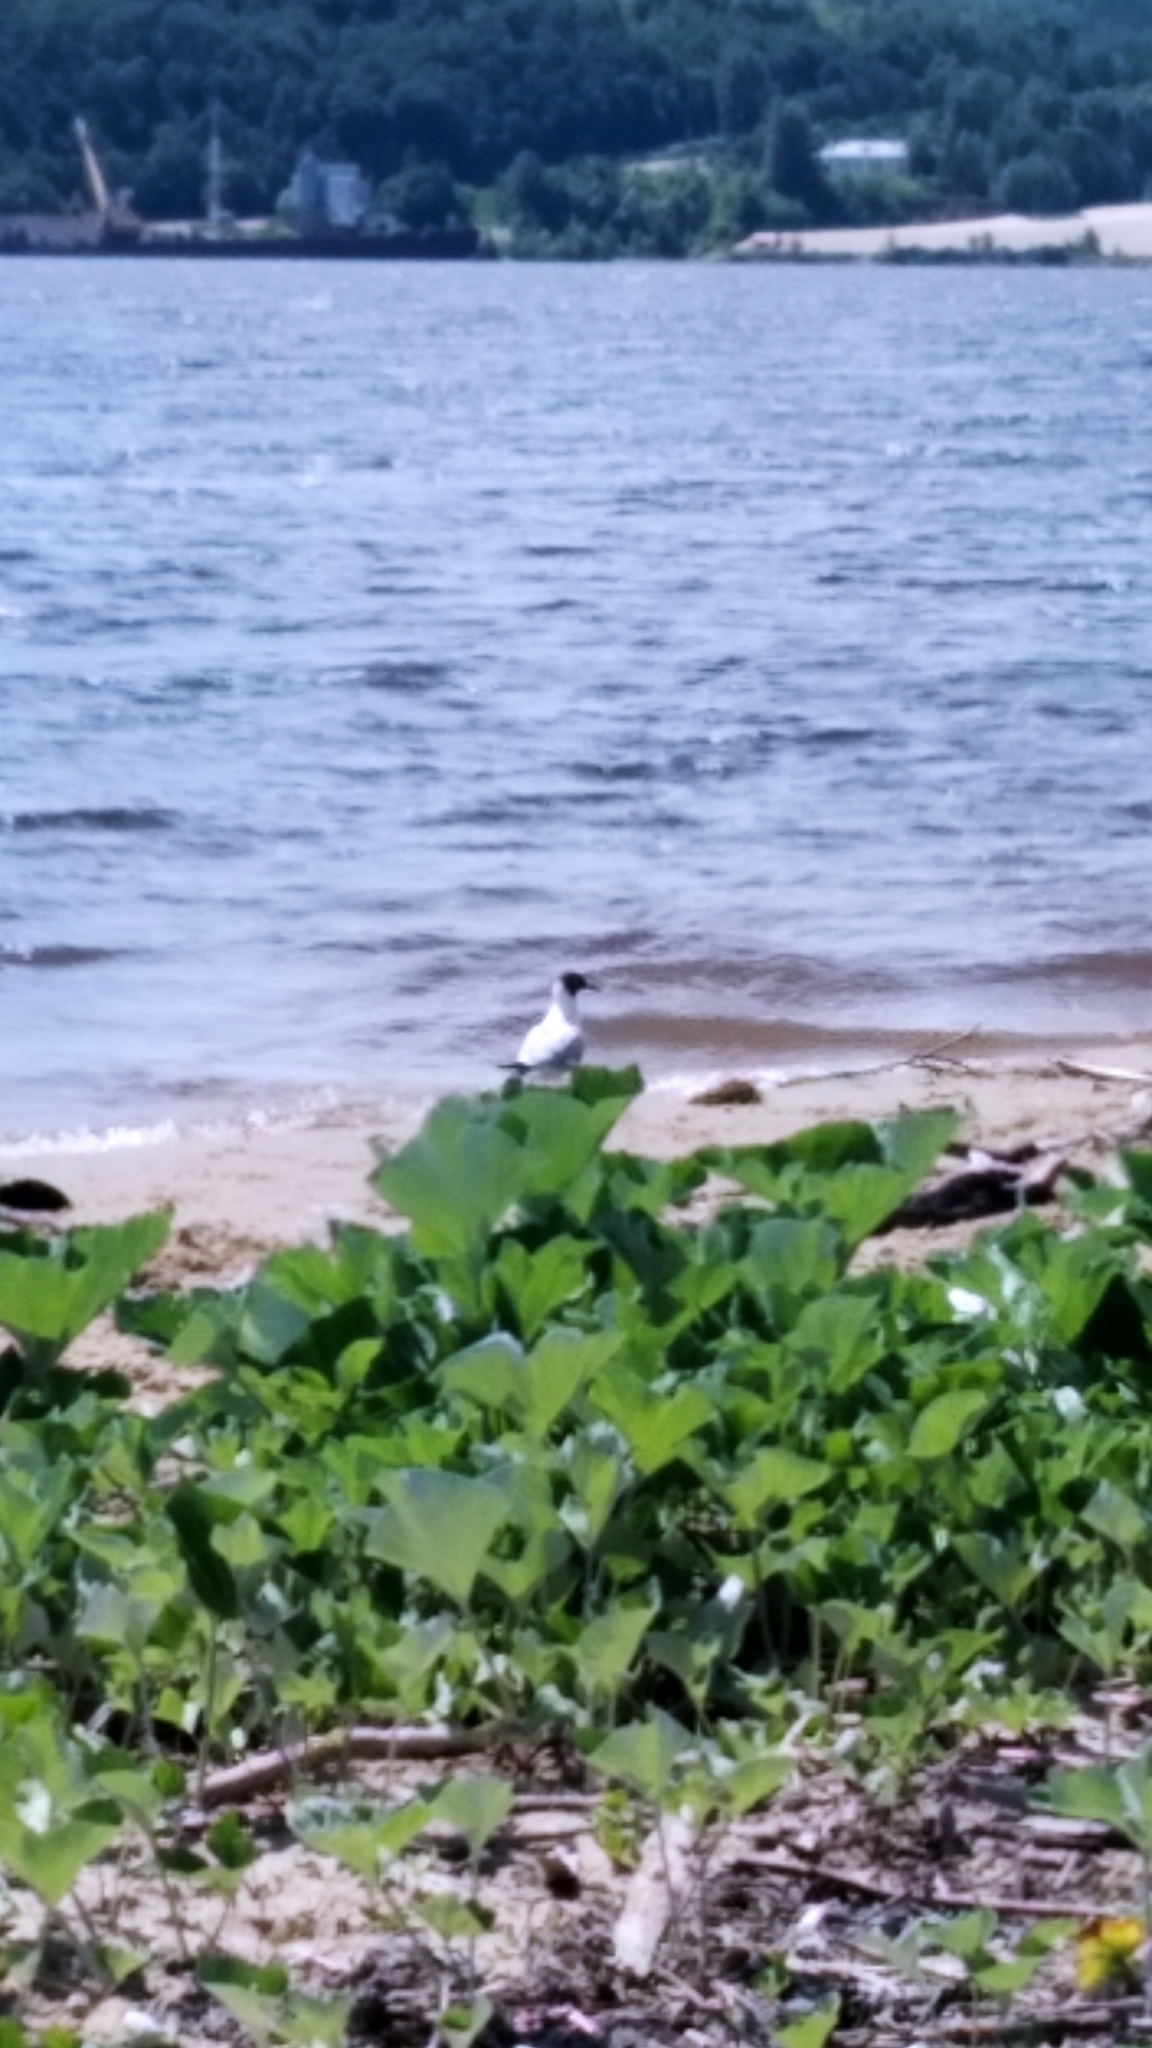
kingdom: Animalia
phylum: Chordata
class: Aves
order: Charadriiformes
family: Laridae
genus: Chroicocephalus
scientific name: Chroicocephalus ridibundus
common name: Black-headed gull
